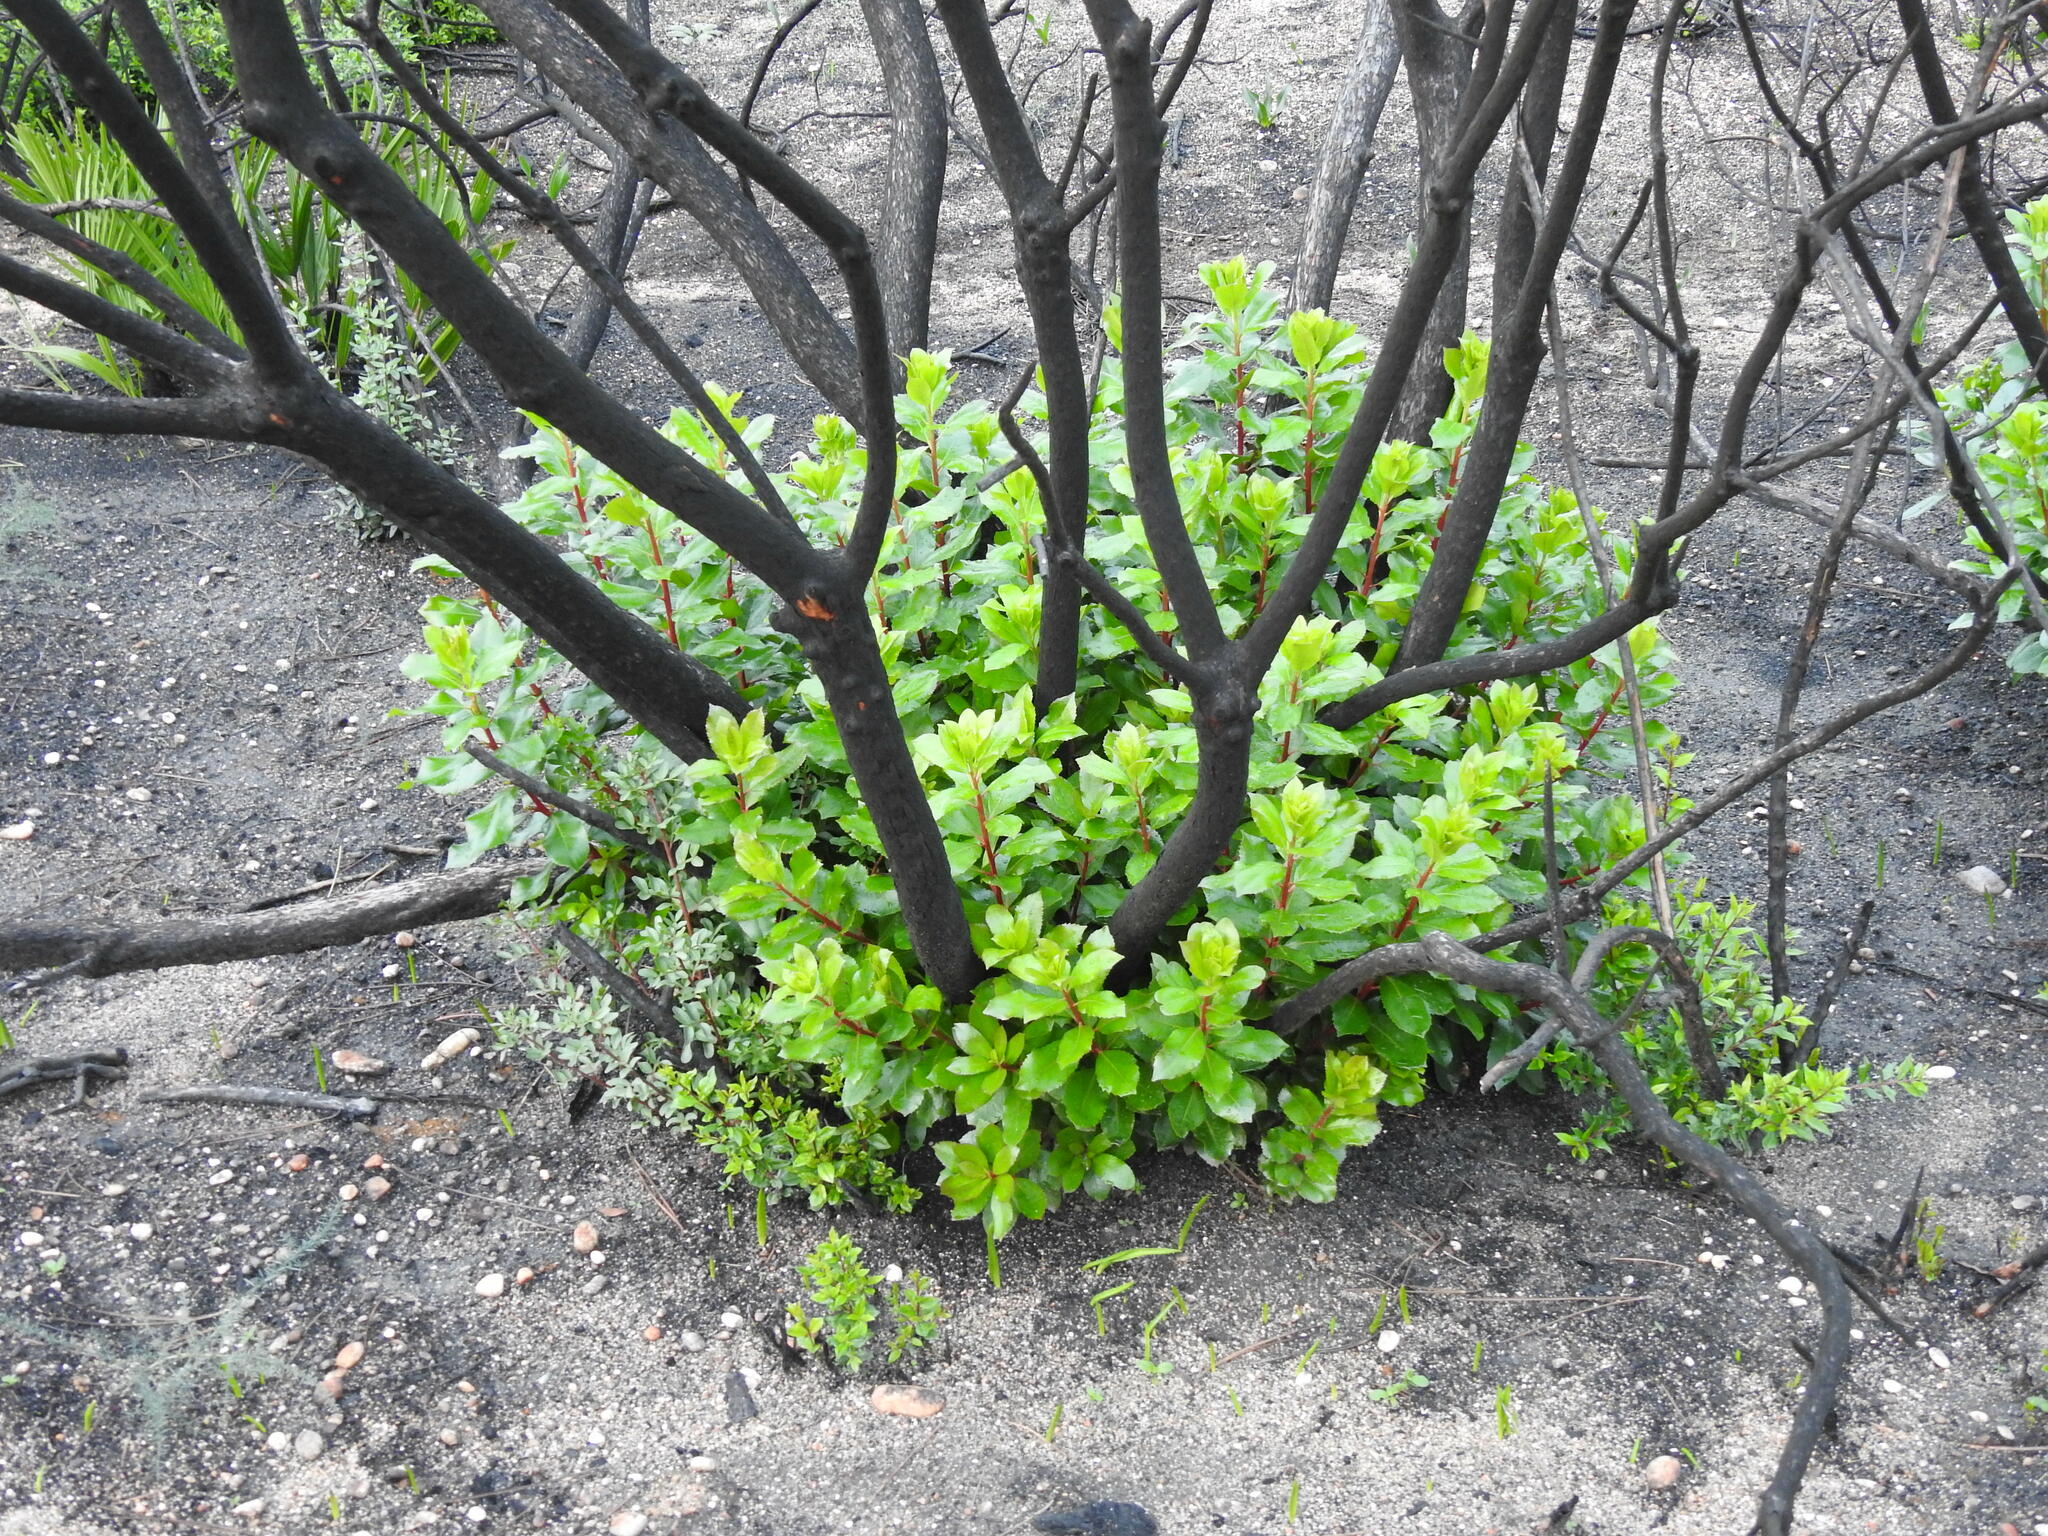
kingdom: Plantae
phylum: Tracheophyta
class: Magnoliopsida
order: Ericales
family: Ericaceae
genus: Arbutus
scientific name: Arbutus unedo
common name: Strawberry-tree
